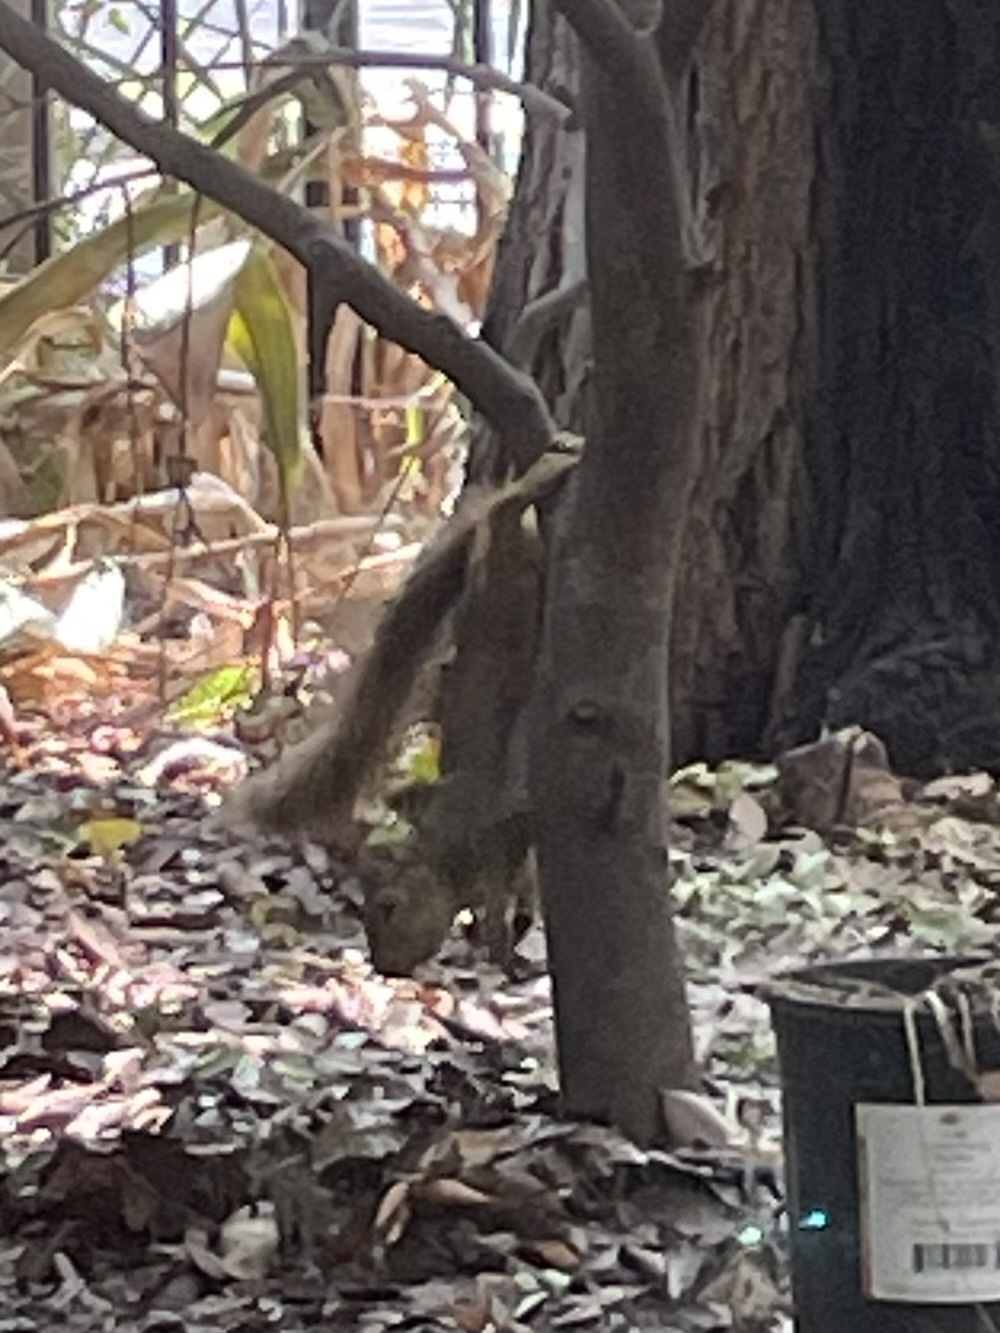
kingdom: Animalia
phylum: Chordata
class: Mammalia
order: Rodentia
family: Sciuridae
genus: Sciurus
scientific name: Sciurus niger
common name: Fox squirrel
